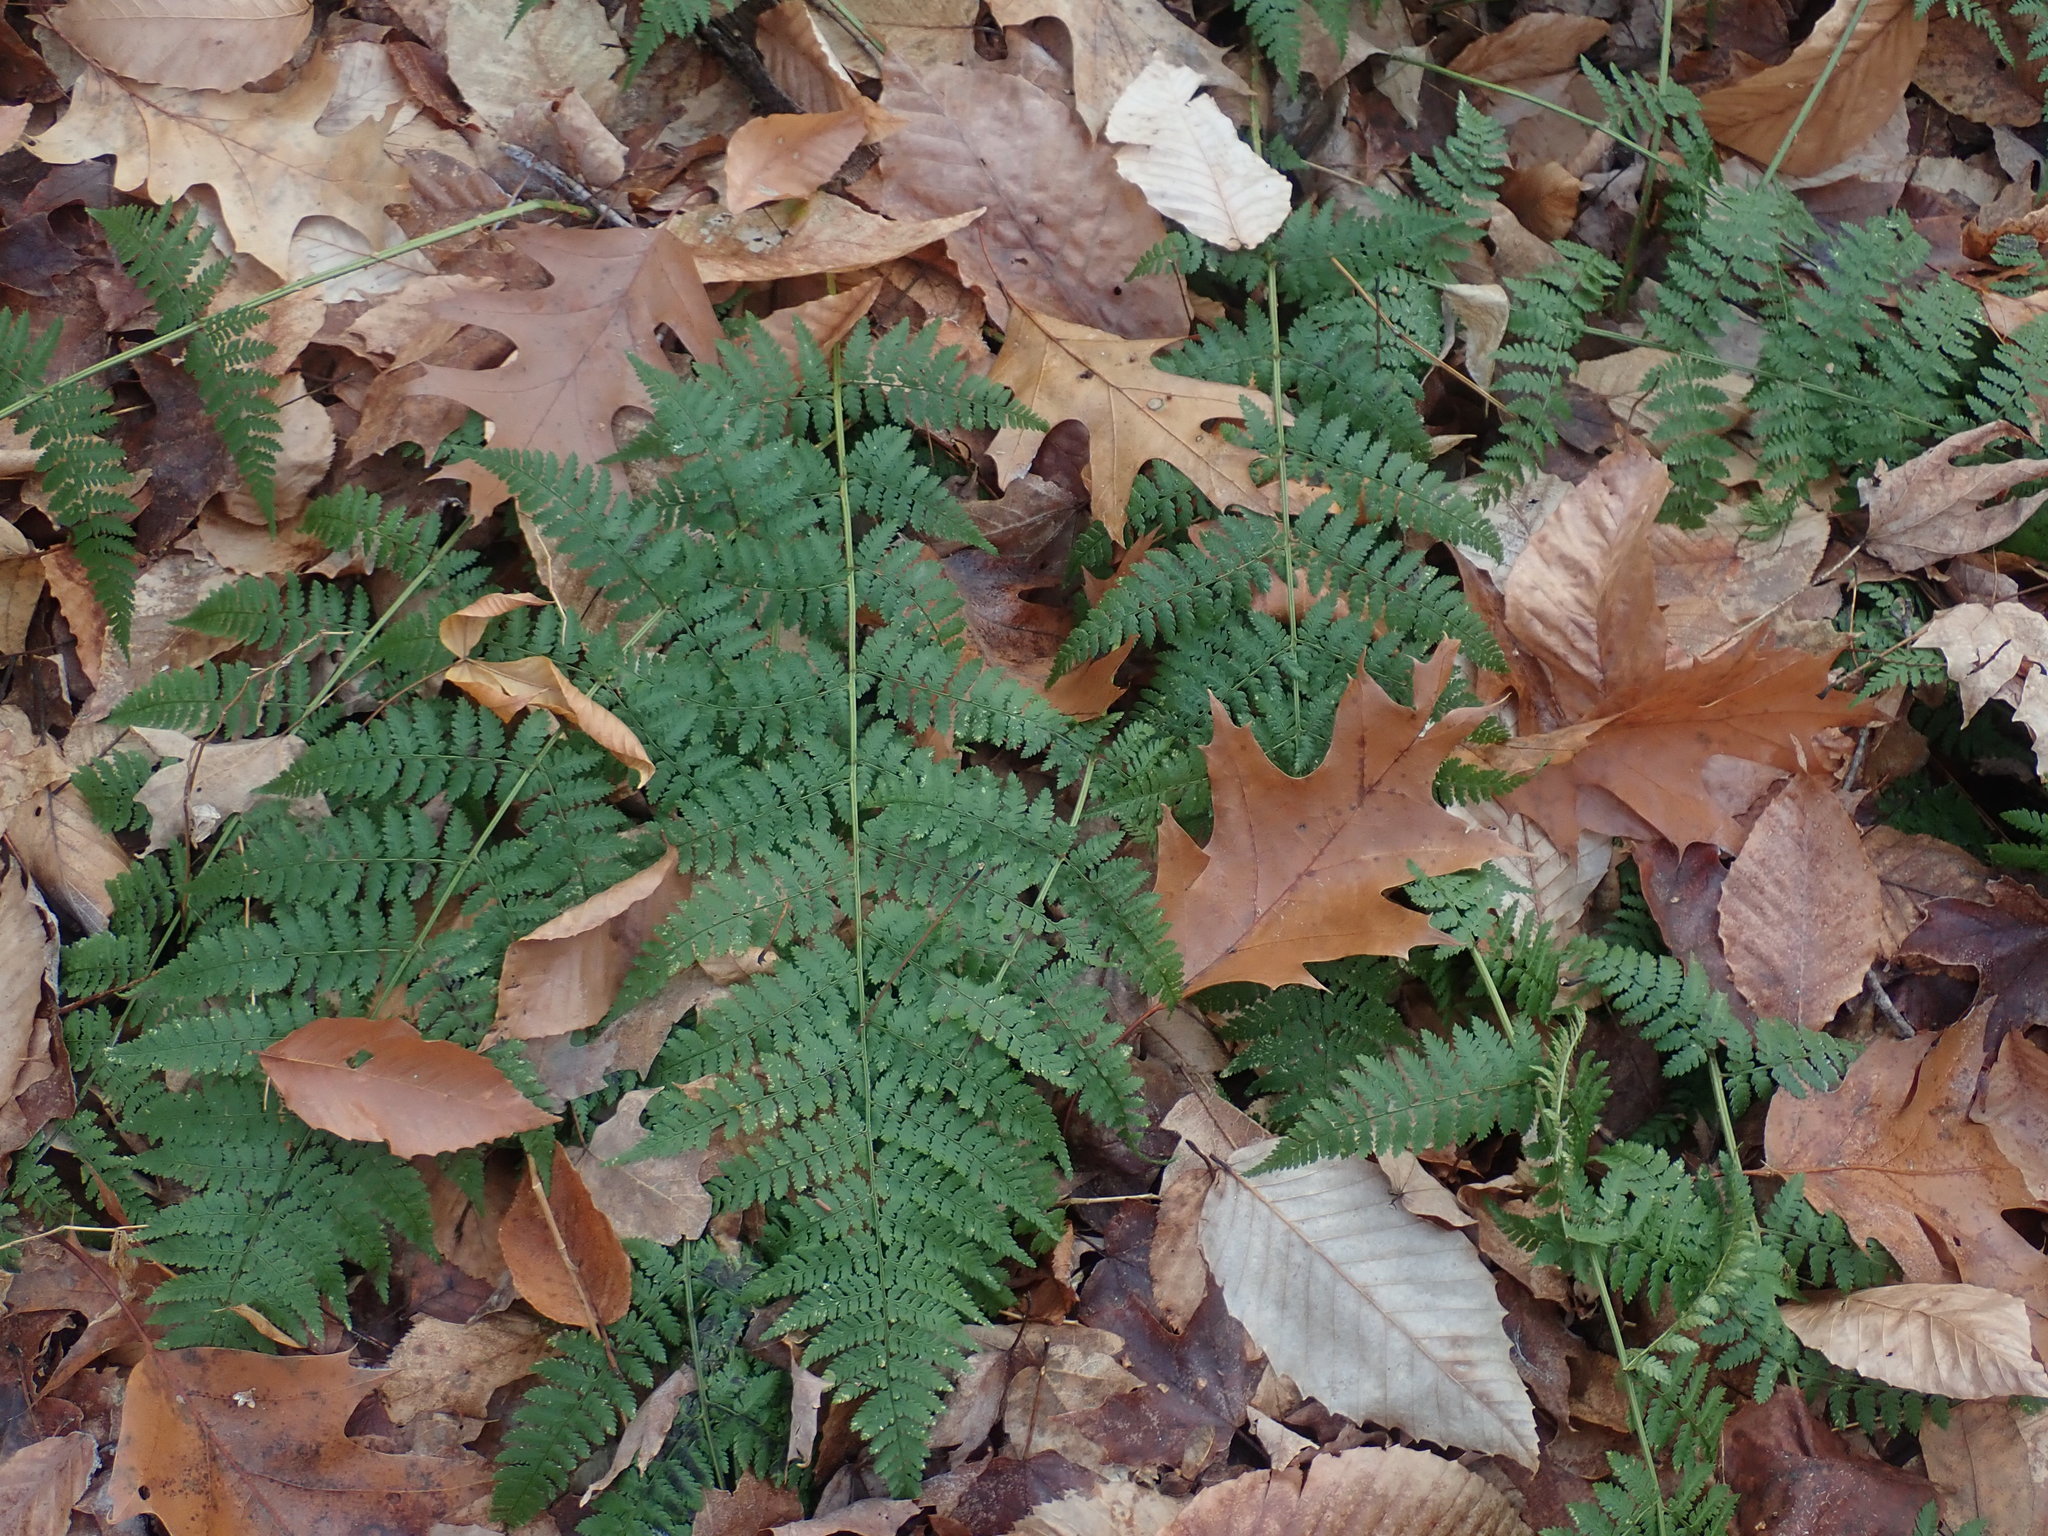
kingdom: Plantae
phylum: Tracheophyta
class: Polypodiopsida
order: Polypodiales
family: Dryopteridaceae
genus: Dryopteris
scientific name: Dryopteris intermedia
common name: Evergreen wood fern
